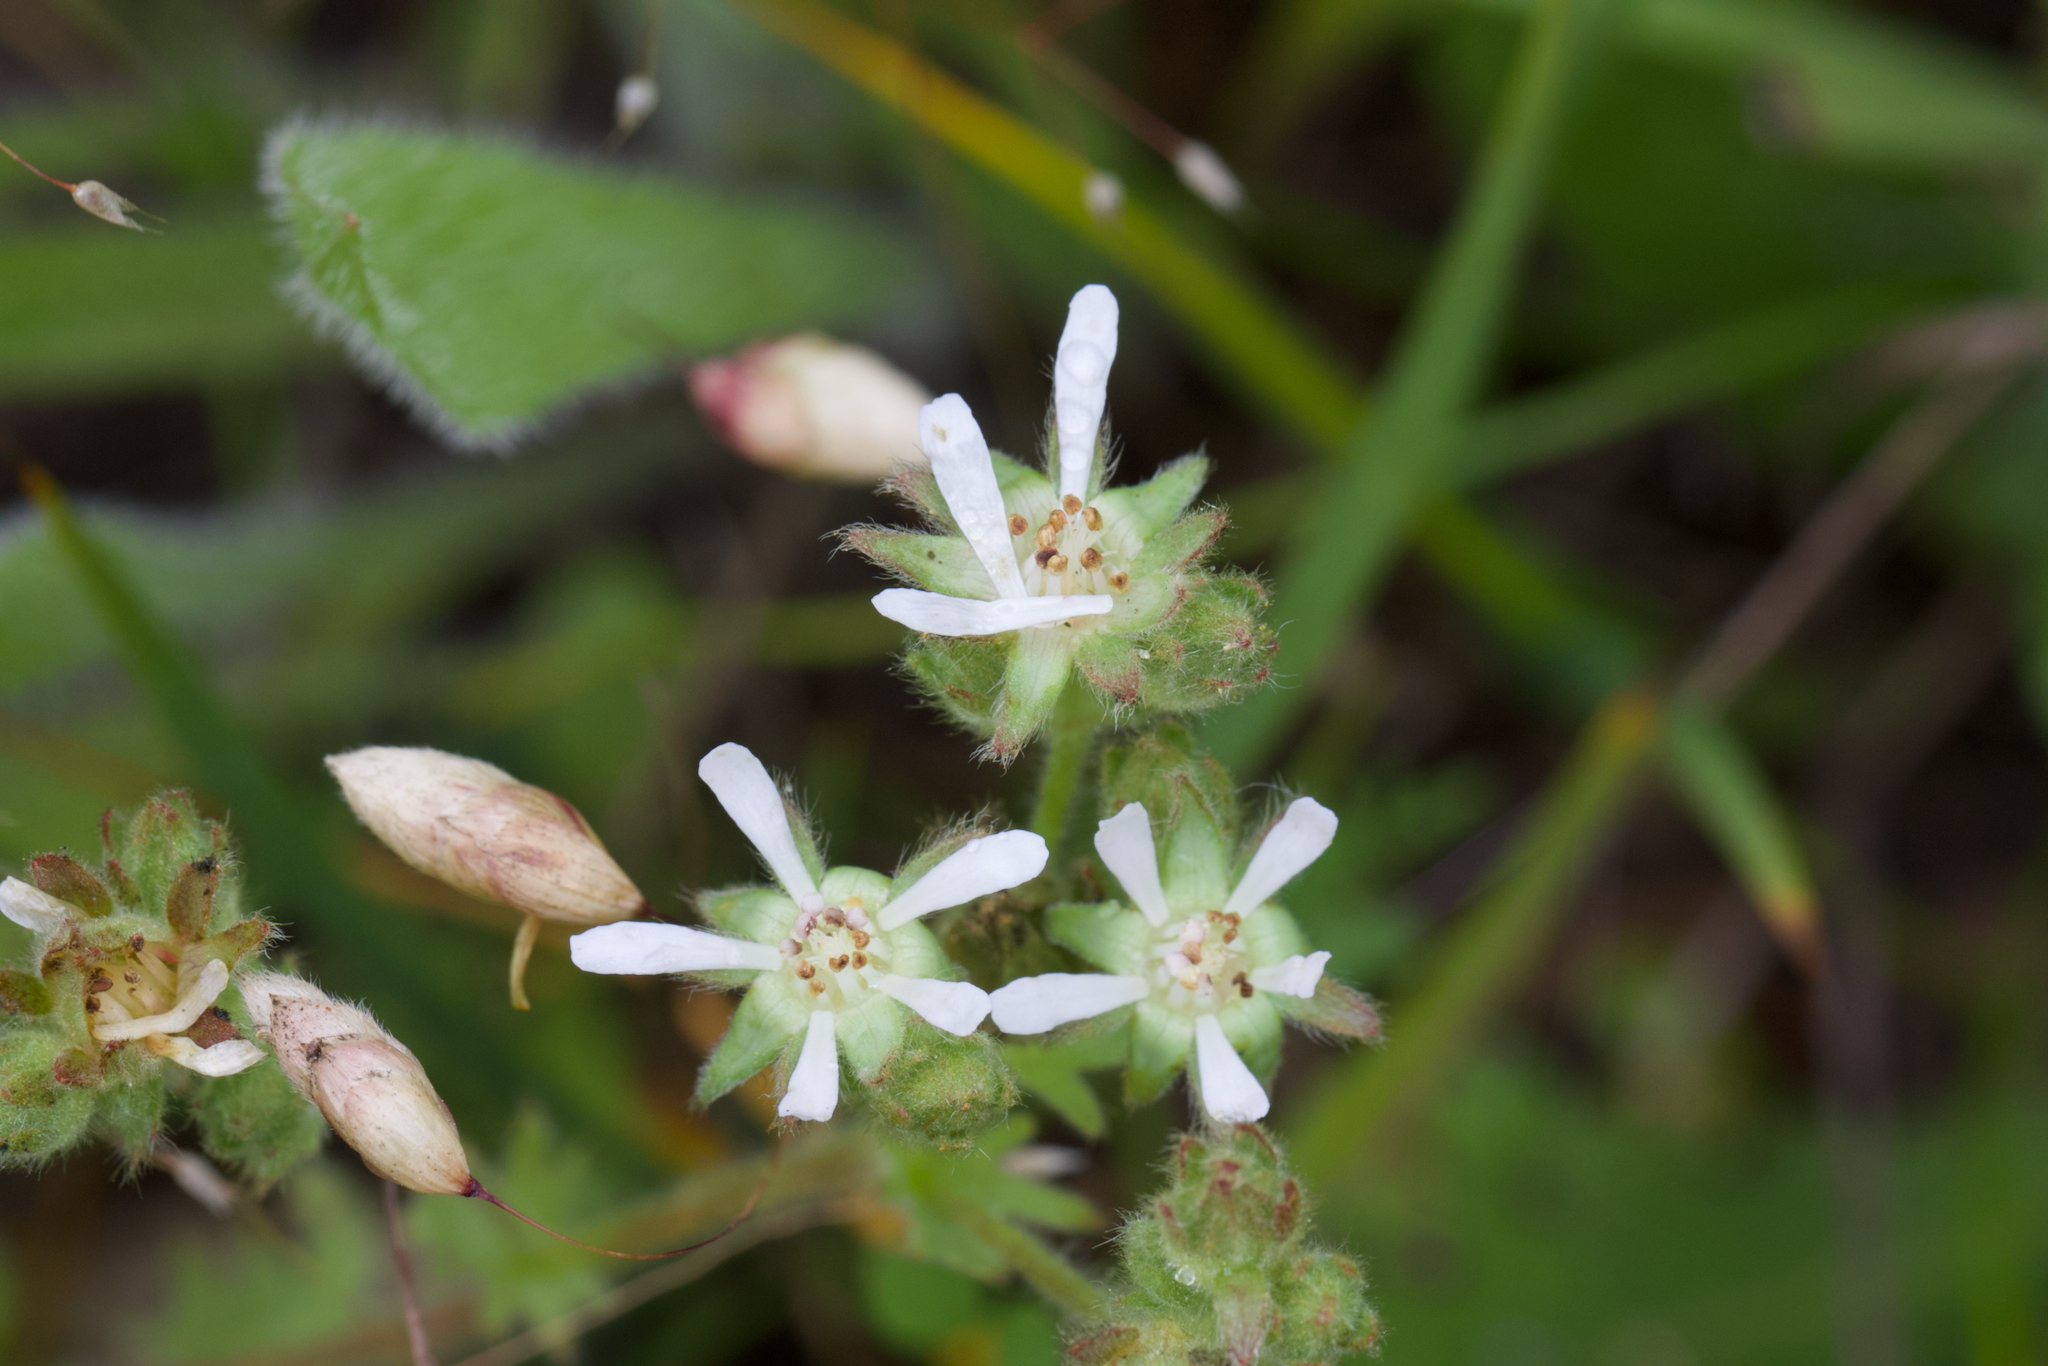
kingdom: Plantae
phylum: Tracheophyta
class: Magnoliopsida
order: Rosales
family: Rosaceae
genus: Potentilla
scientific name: Potentilla marinensis
